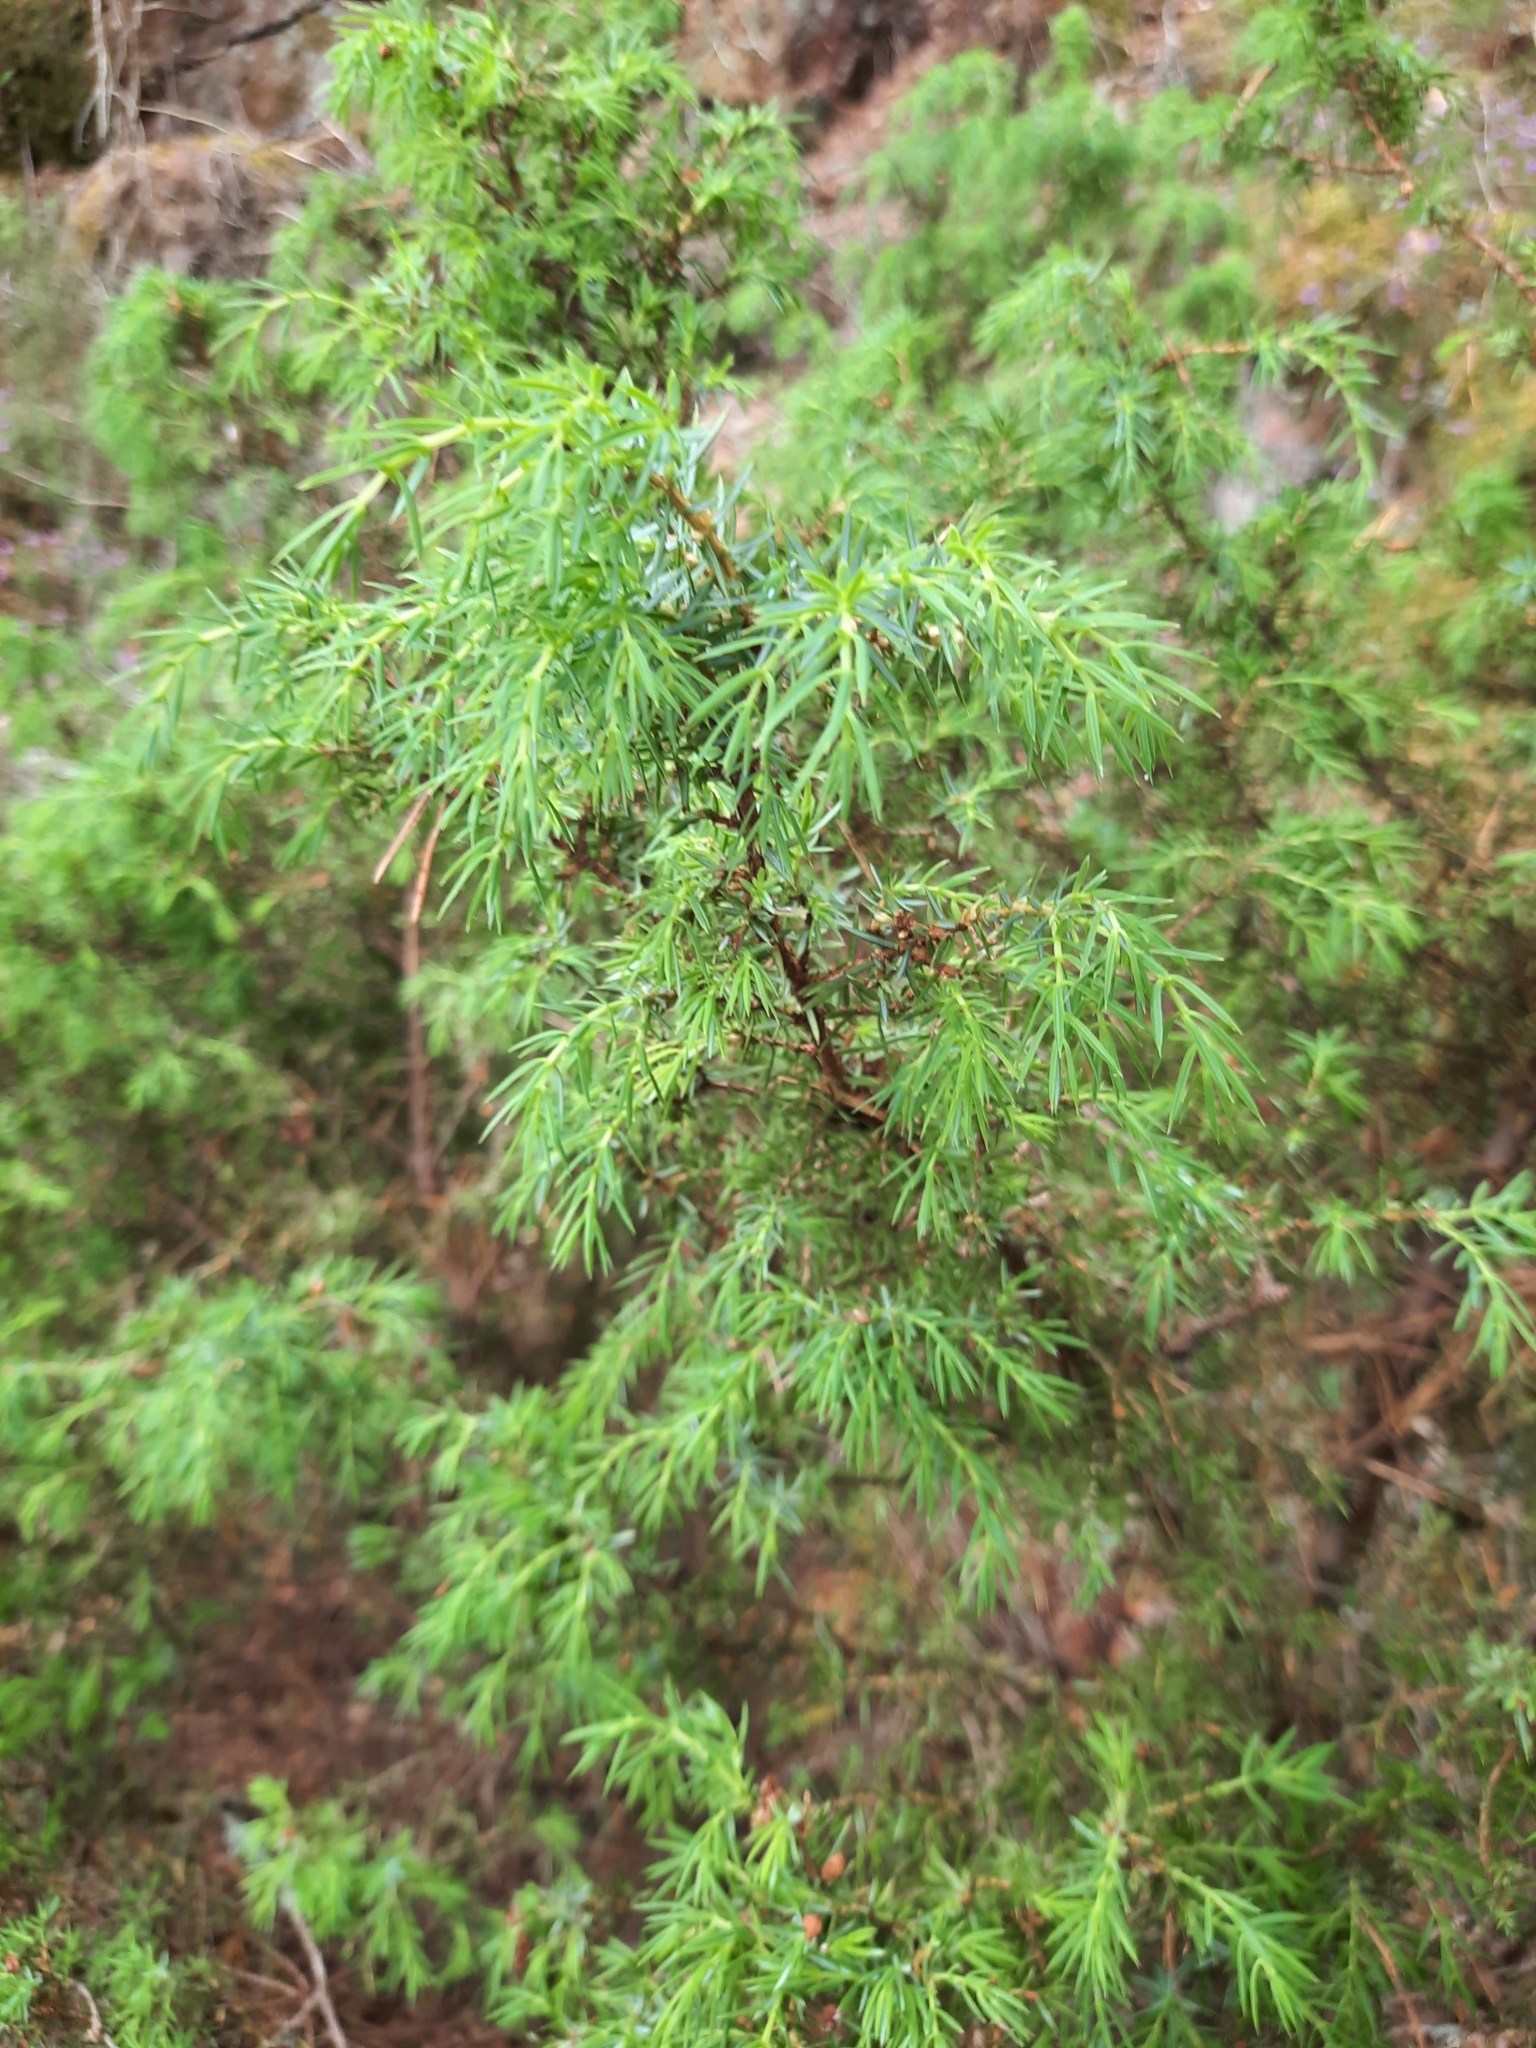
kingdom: Plantae
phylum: Tracheophyta
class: Pinopsida
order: Pinales
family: Cupressaceae
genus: Juniperus
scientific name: Juniperus communis
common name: Common juniper
